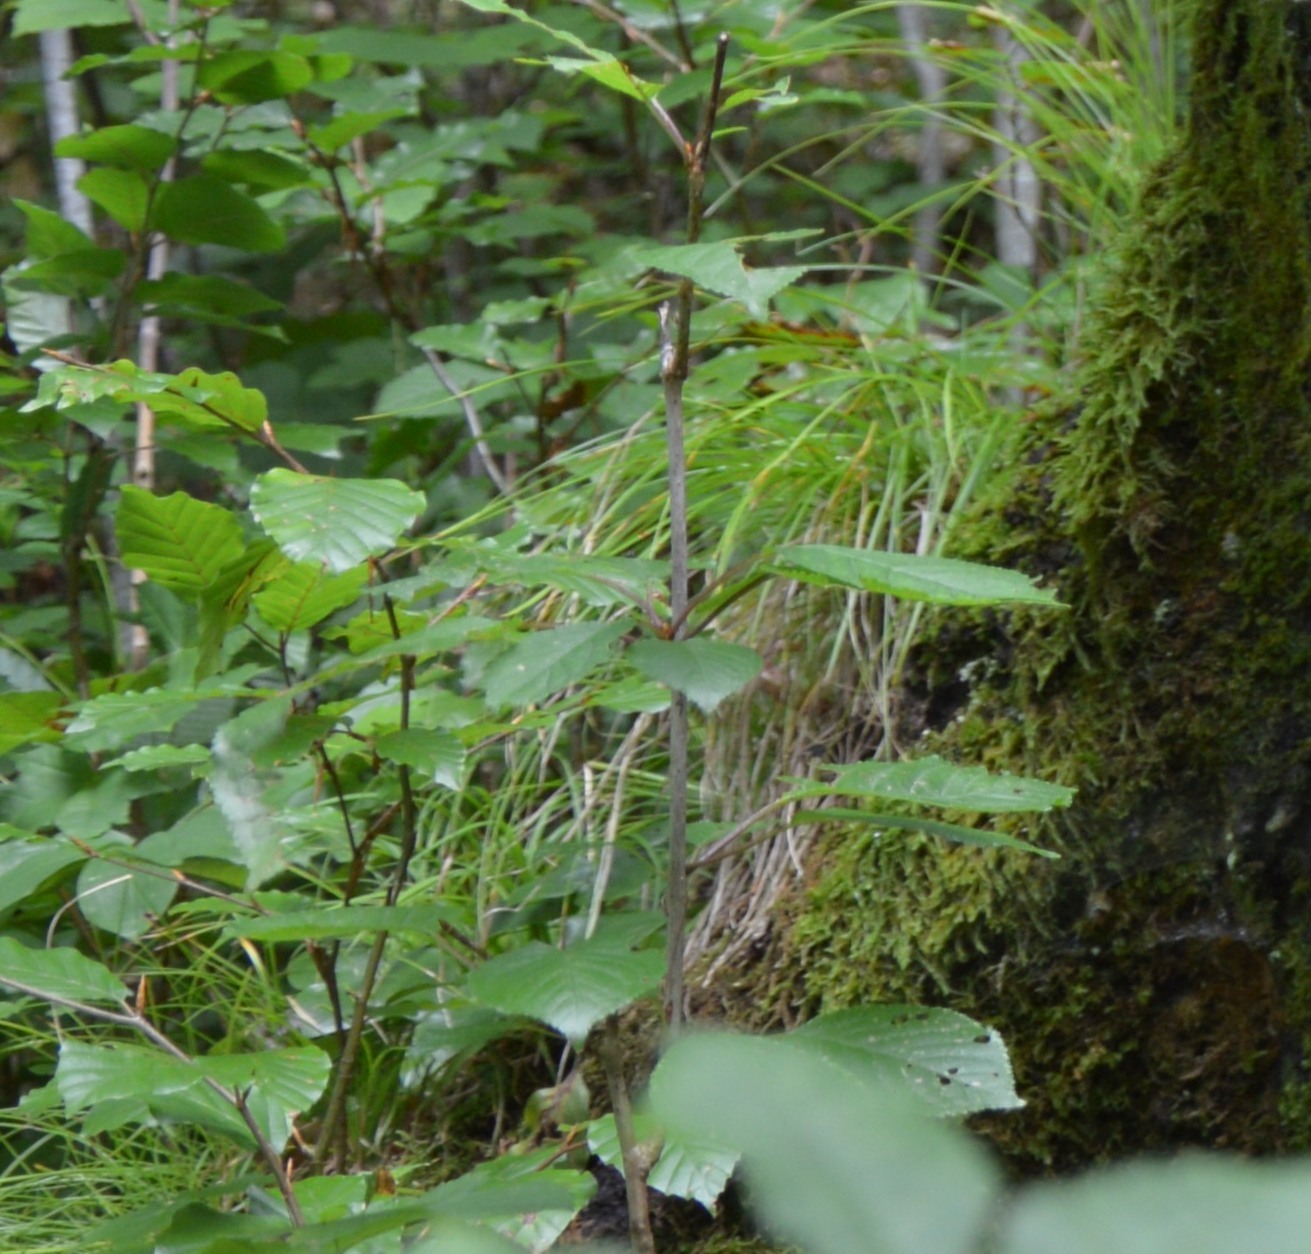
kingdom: Plantae
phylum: Tracheophyta
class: Magnoliopsida
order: Fagales
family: Fagaceae
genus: Fagus
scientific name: Fagus sylvatica
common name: Beech
